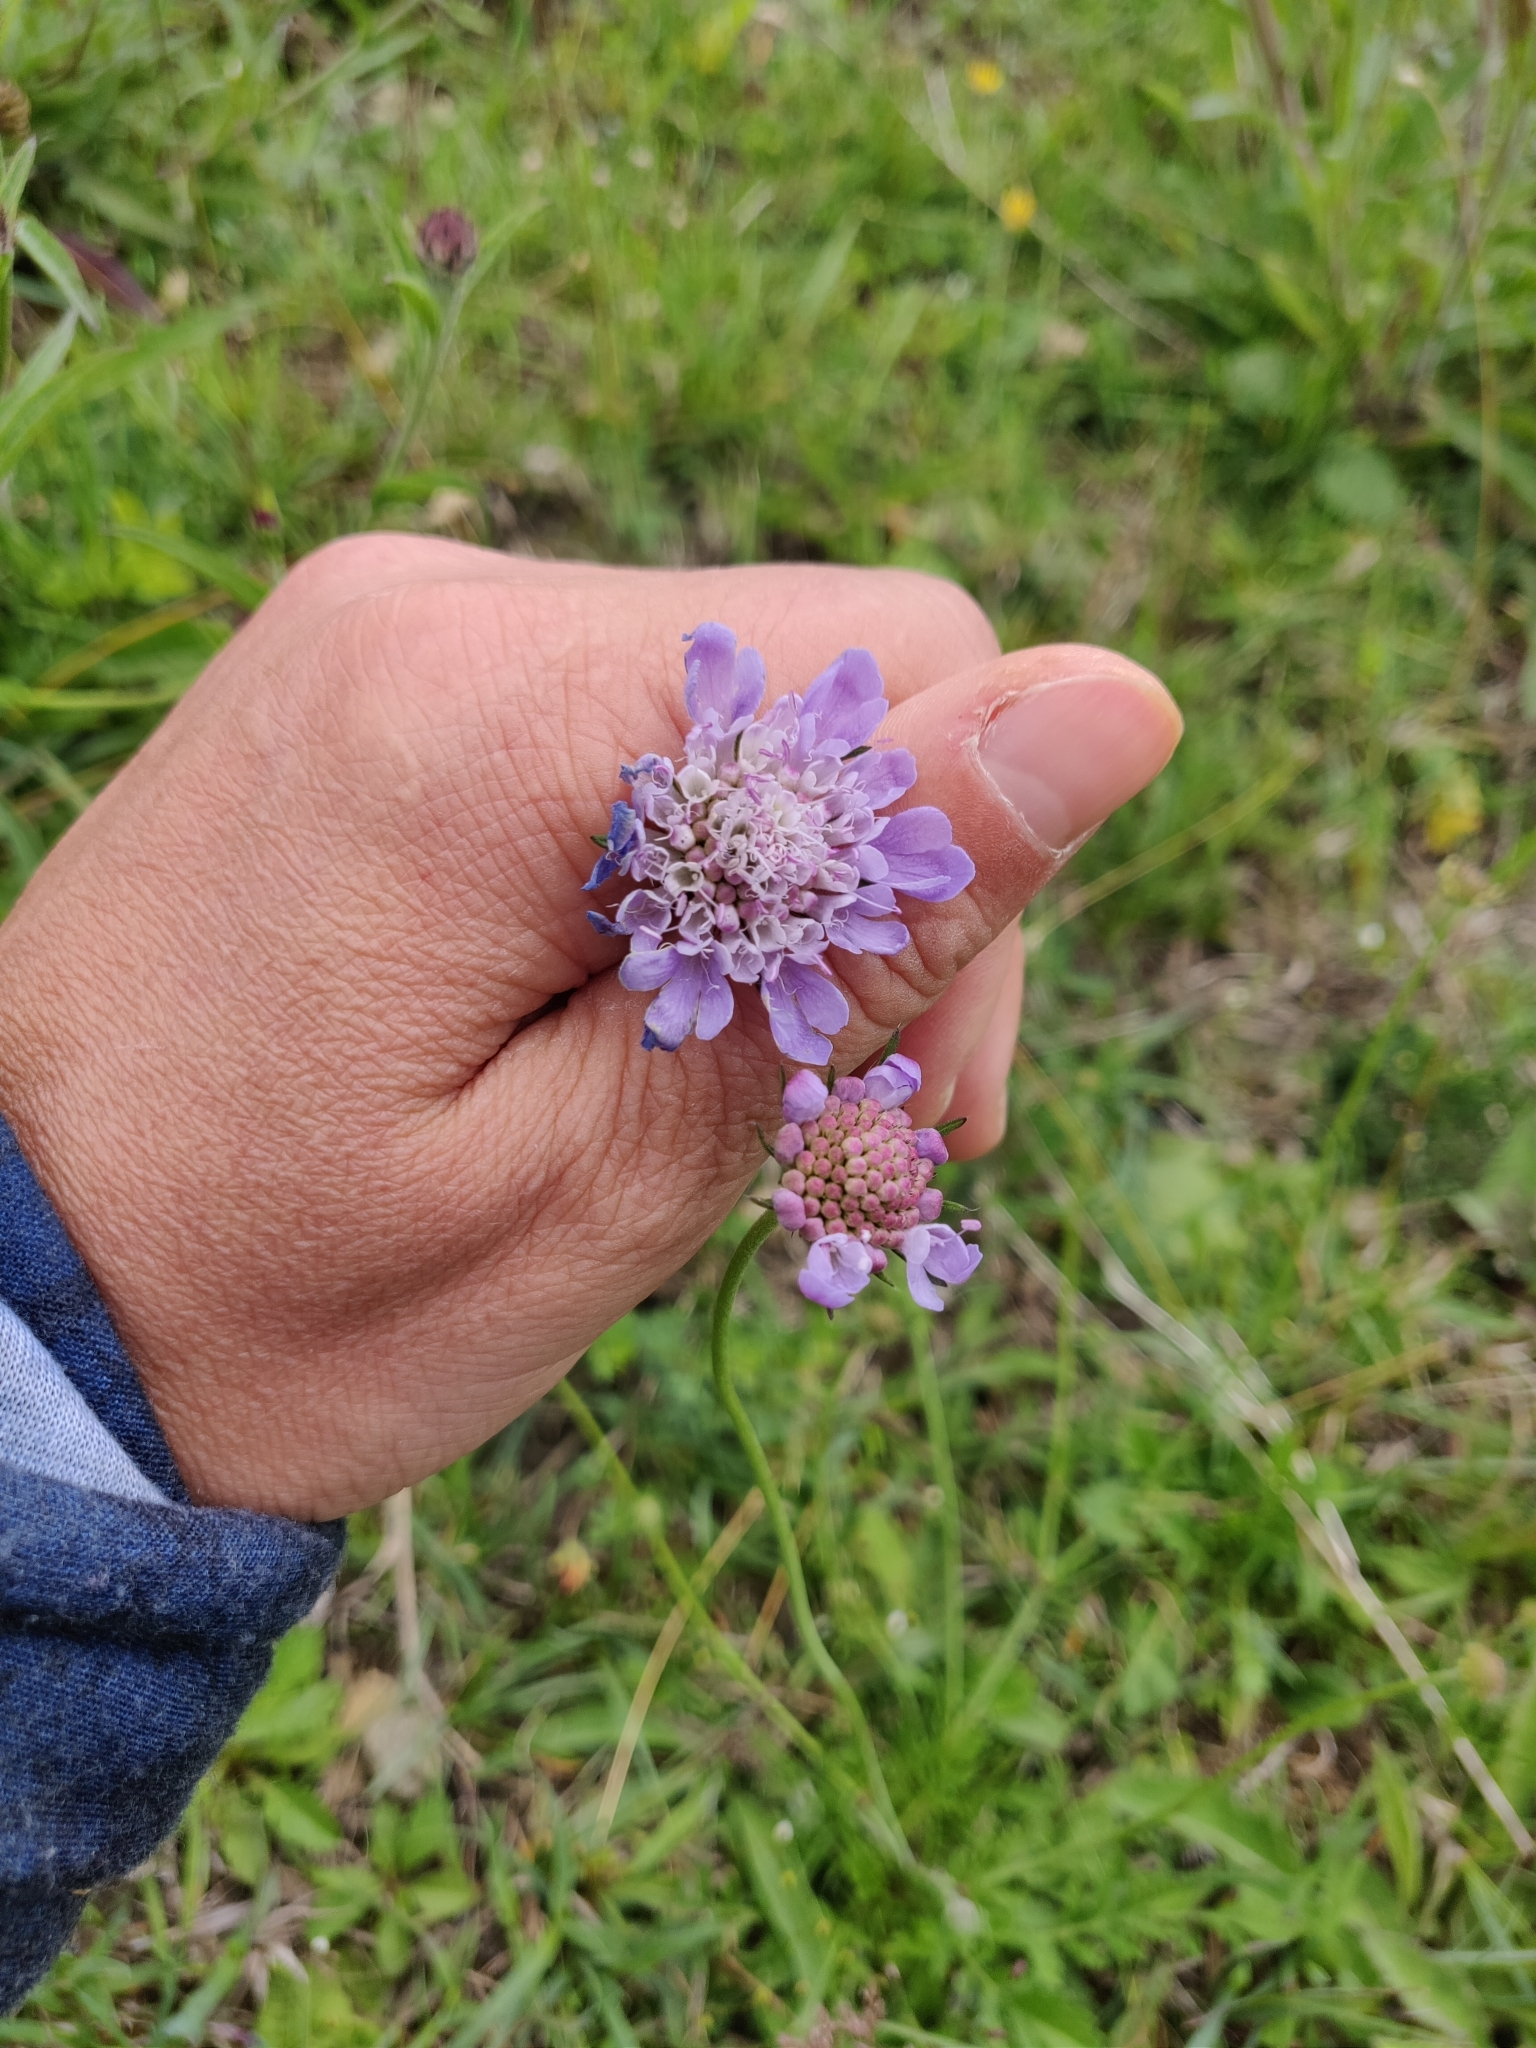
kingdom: Plantae
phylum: Tracheophyta
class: Magnoliopsida
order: Dipsacales
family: Caprifoliaceae
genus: Knautia
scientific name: Knautia arvensis
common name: Field scabiosa
